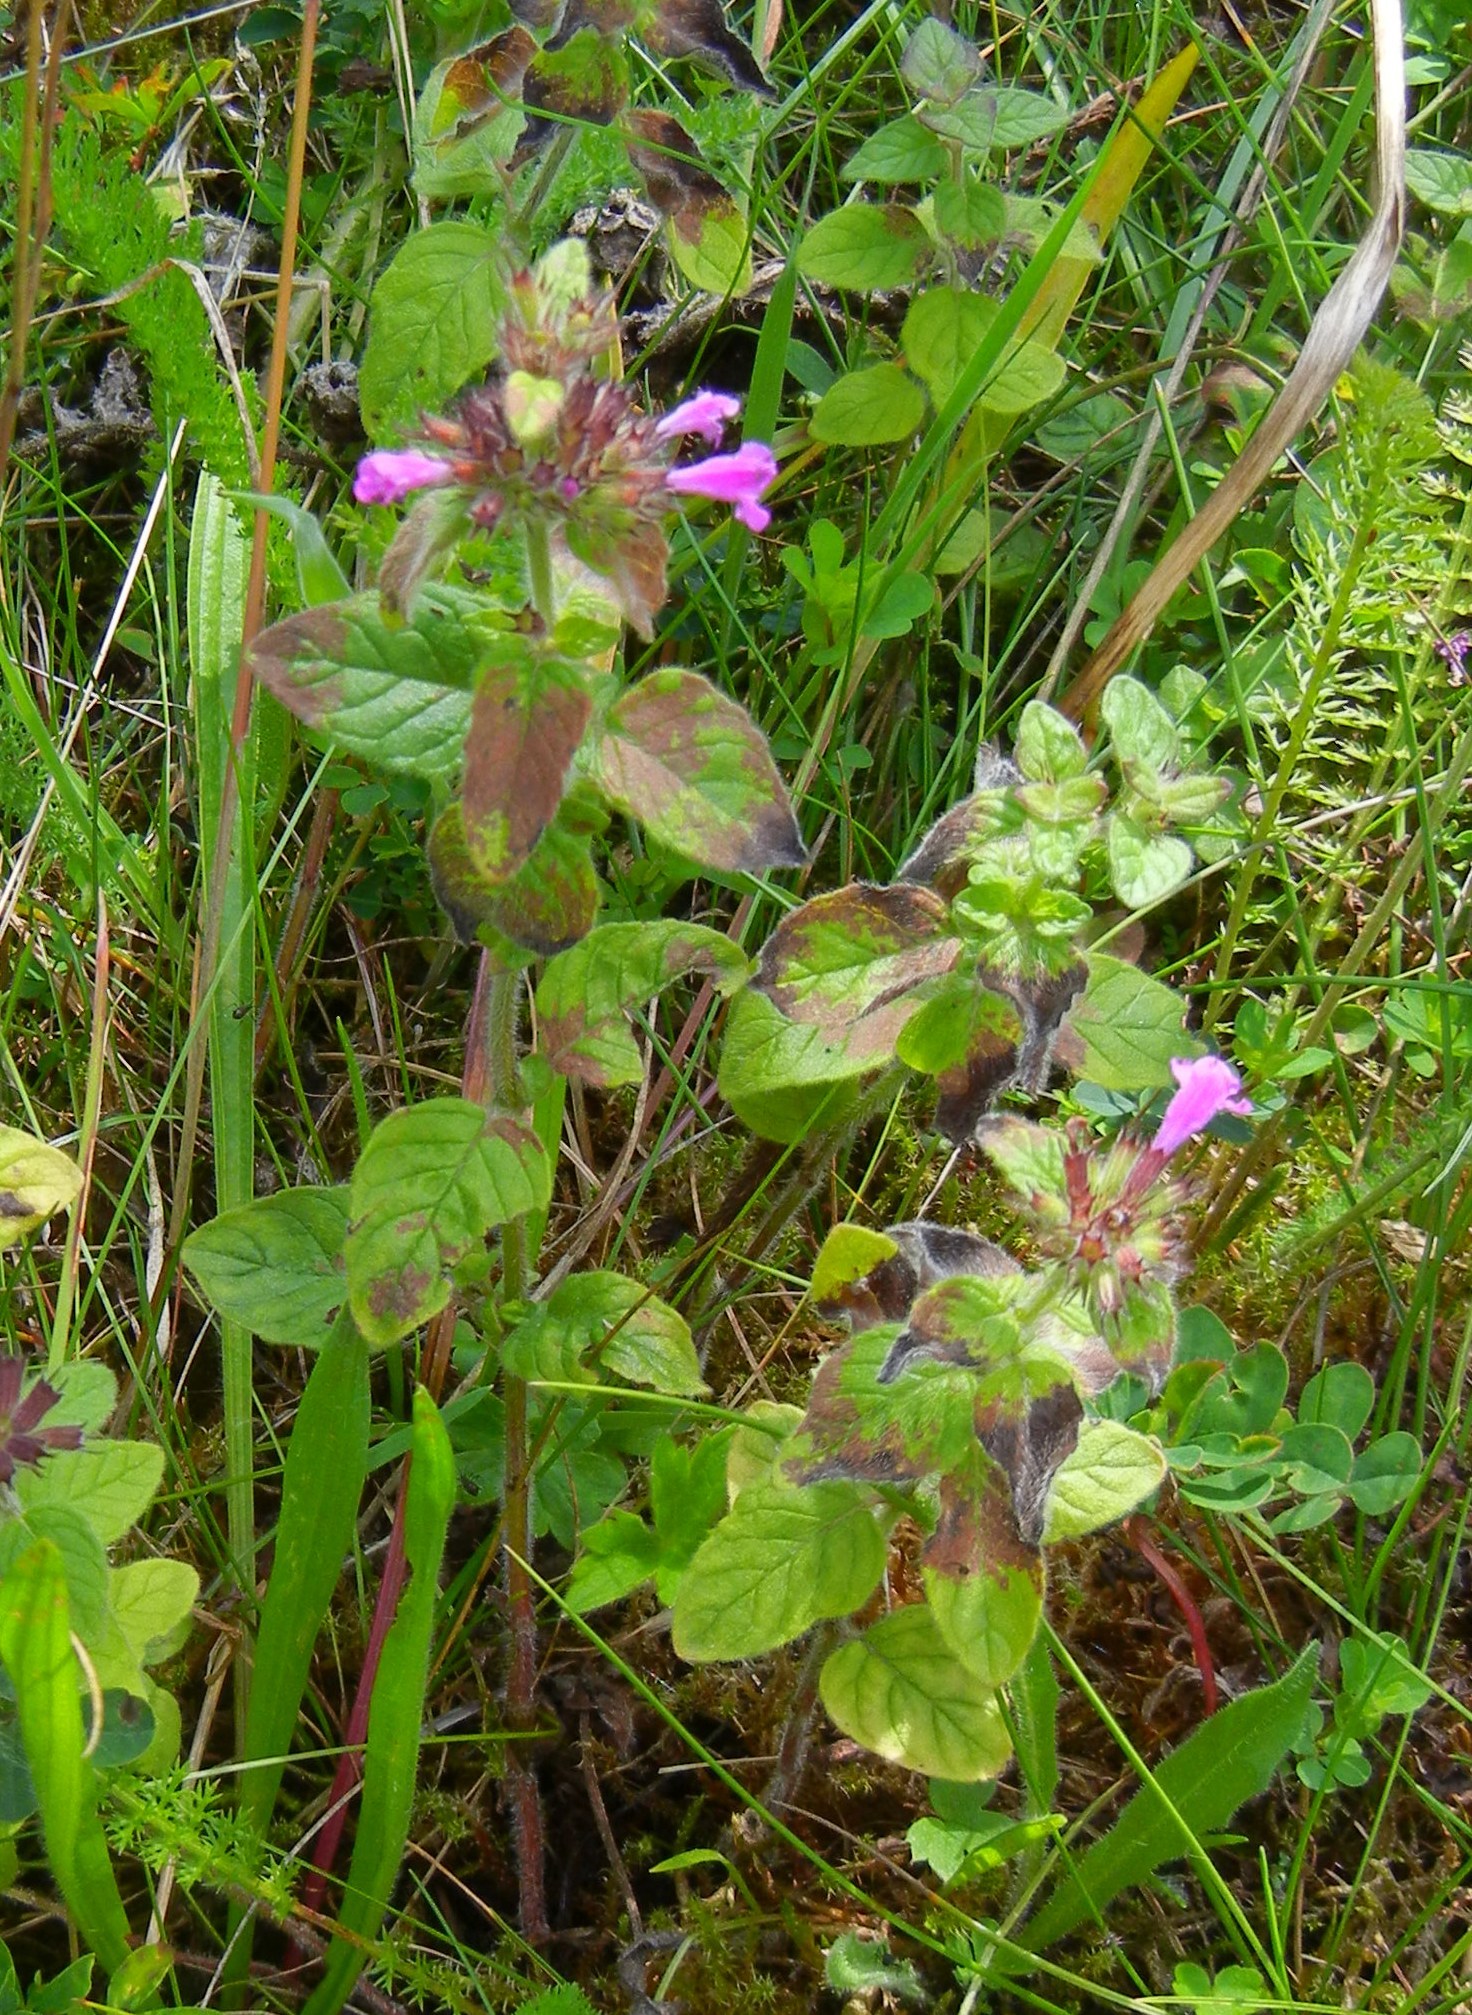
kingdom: Plantae
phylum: Tracheophyta
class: Magnoliopsida
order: Lamiales
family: Lamiaceae
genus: Clinopodium
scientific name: Clinopodium vulgare
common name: Wild basil
